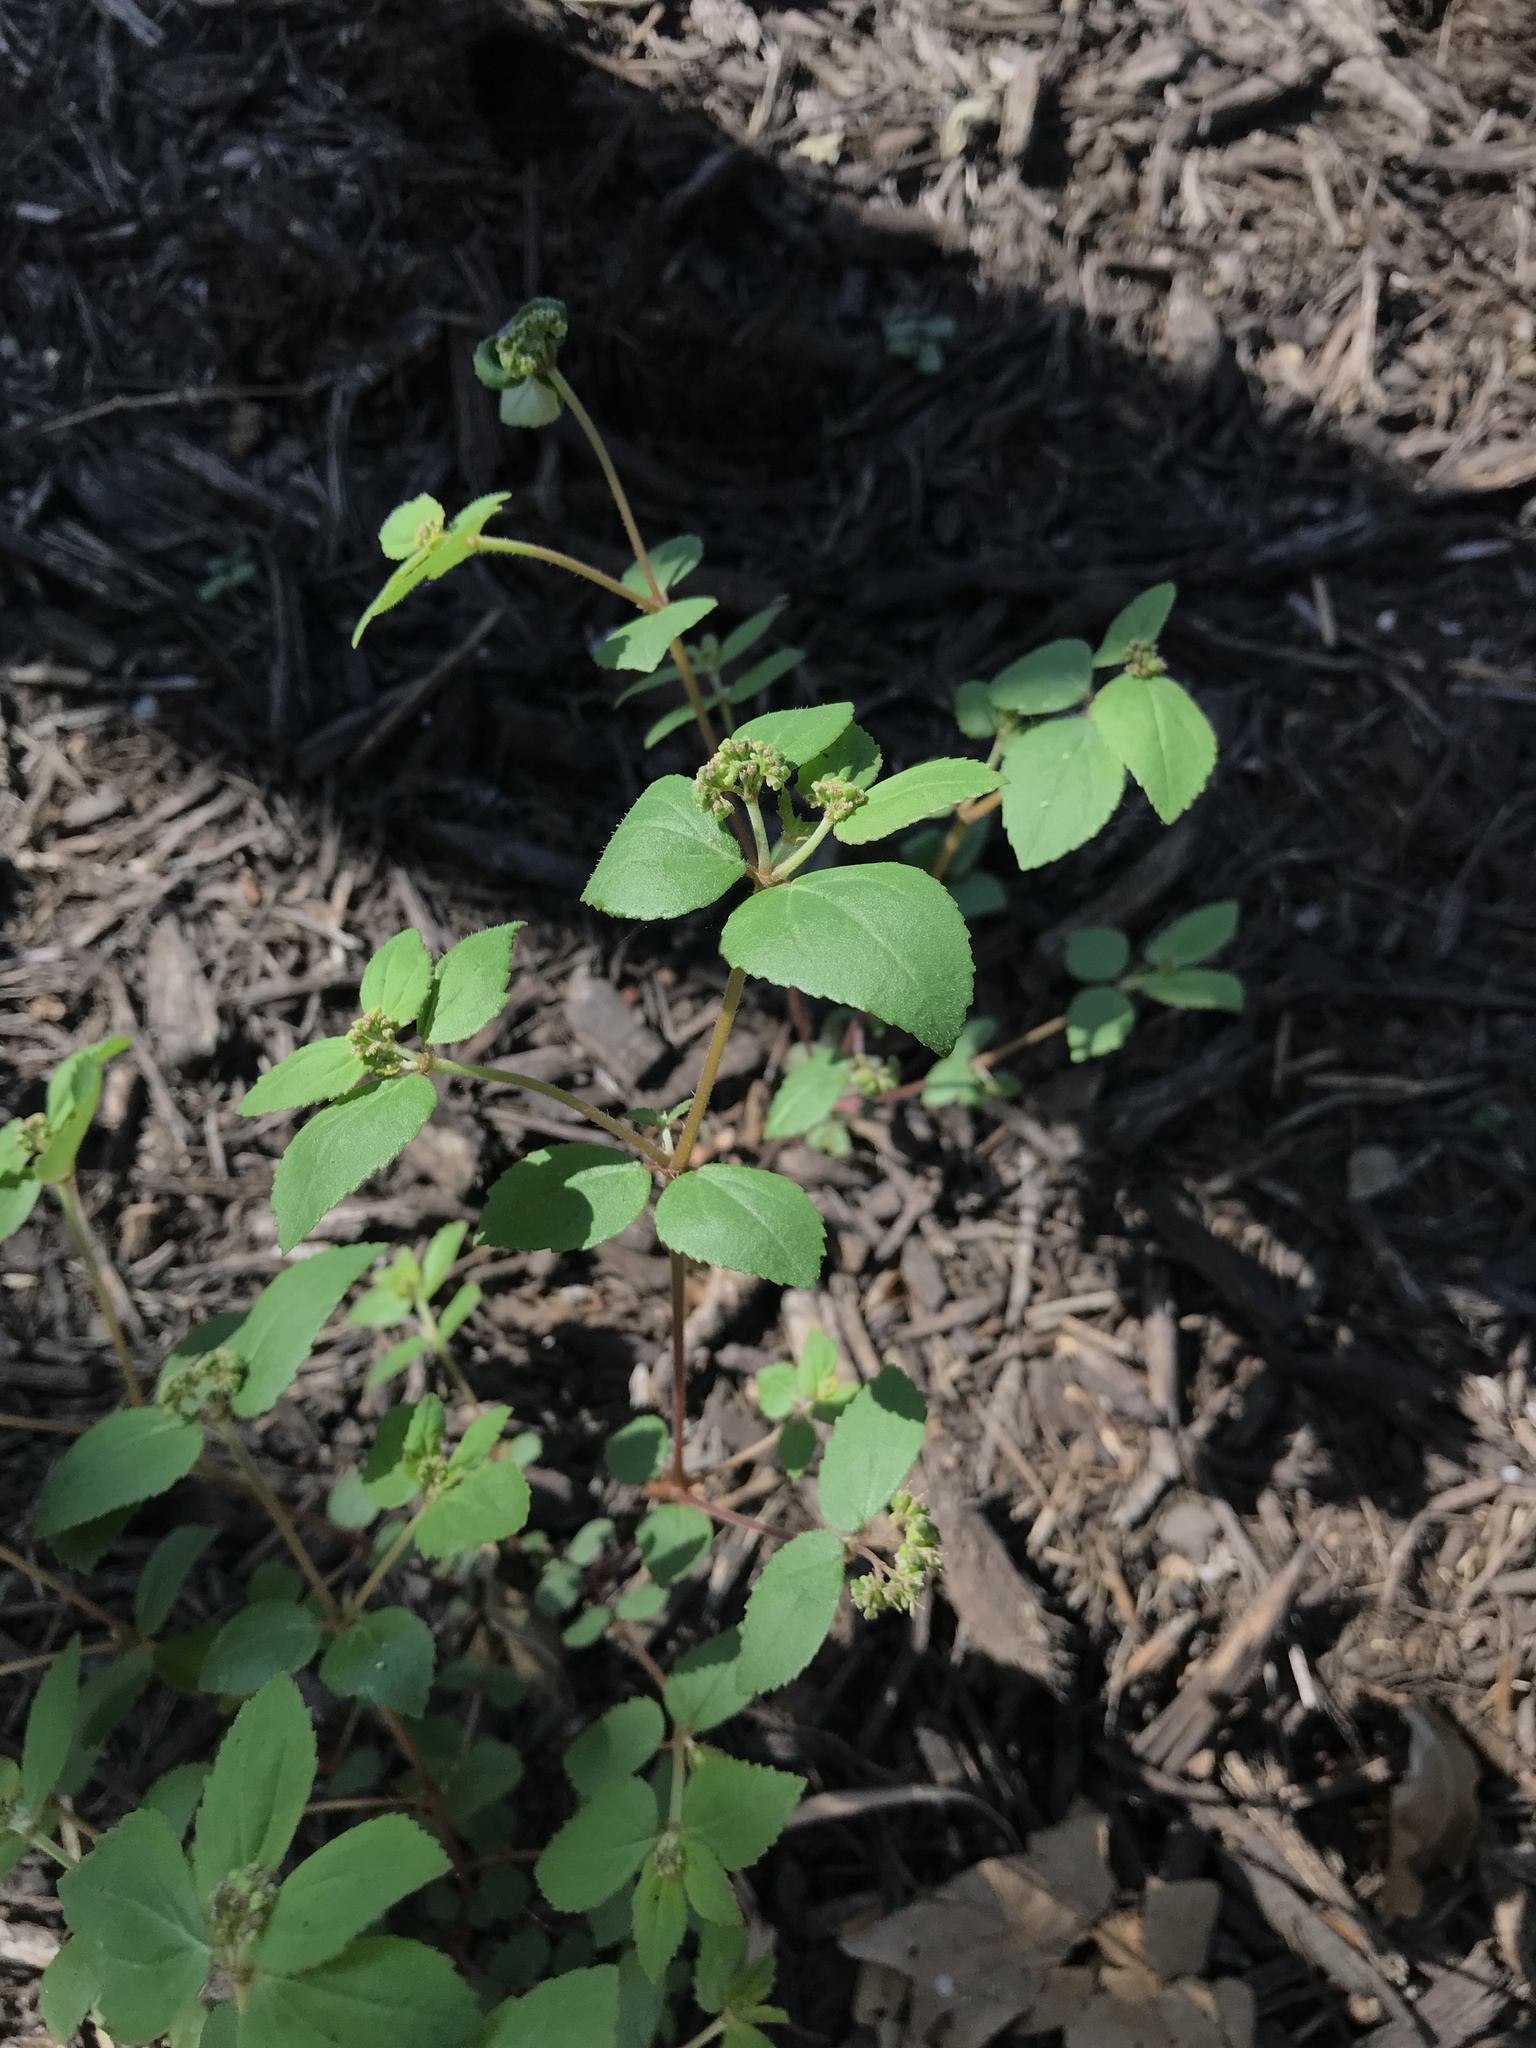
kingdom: Plantae
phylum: Tracheophyta
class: Magnoliopsida
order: Malpighiales
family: Euphorbiaceae
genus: Euphorbia
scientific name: Euphorbia ophthalmica
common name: Florida hammock sandmat
